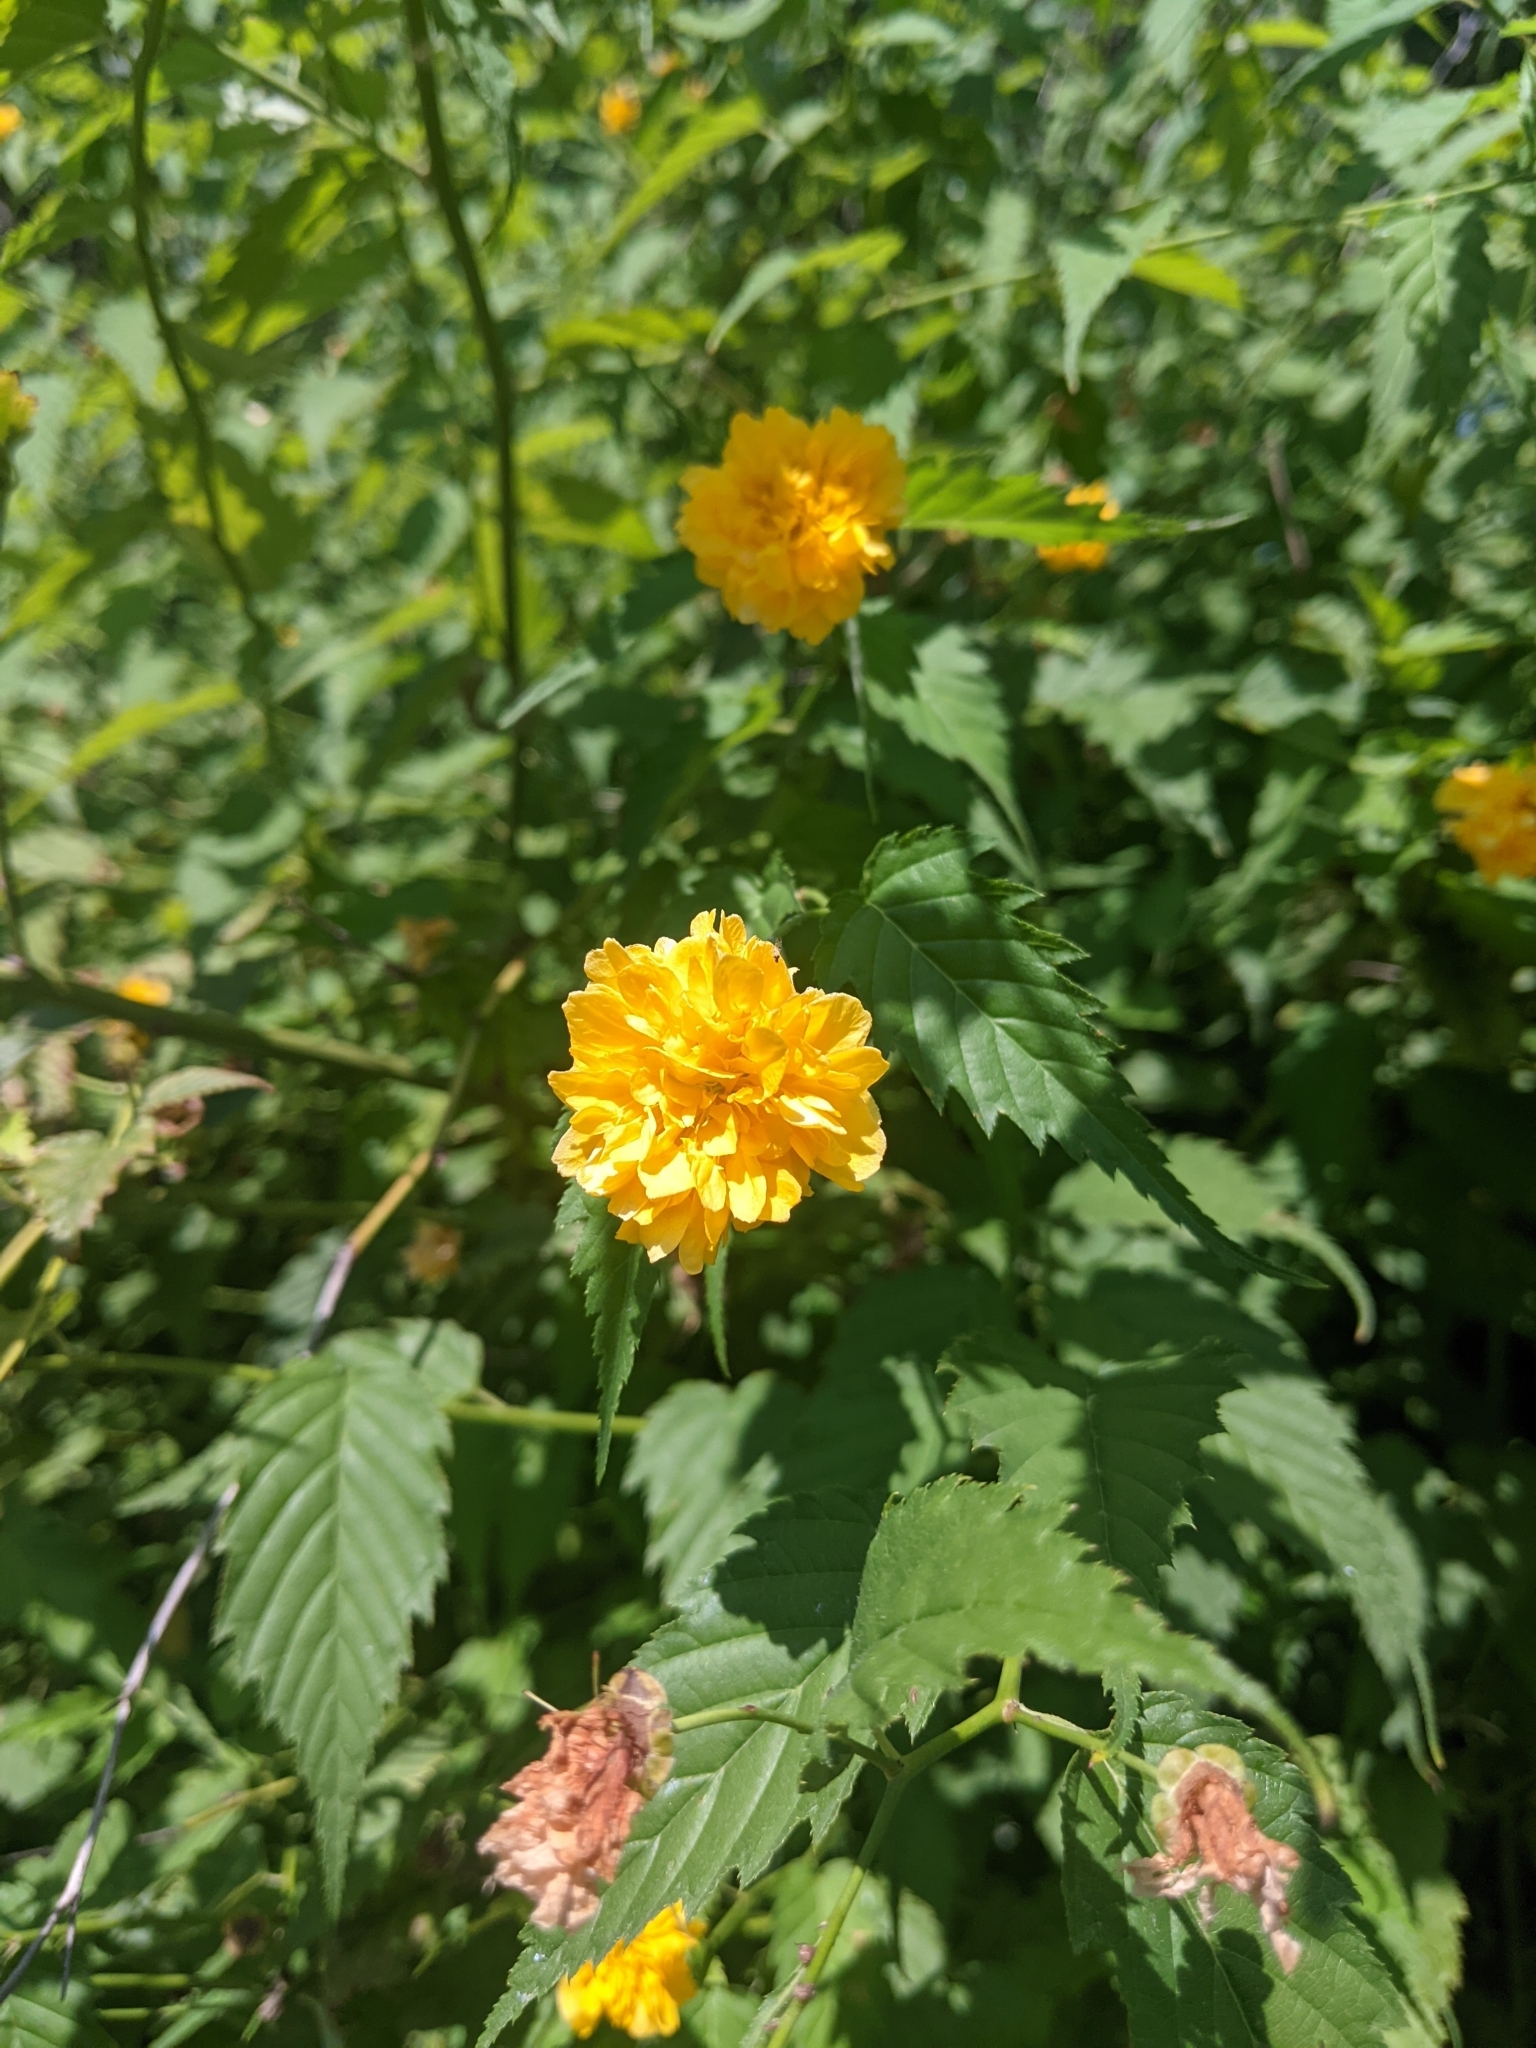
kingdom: Plantae
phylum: Tracheophyta
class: Magnoliopsida
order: Rosales
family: Rosaceae
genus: Kerria
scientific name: Kerria japonica
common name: Japanese kerria
